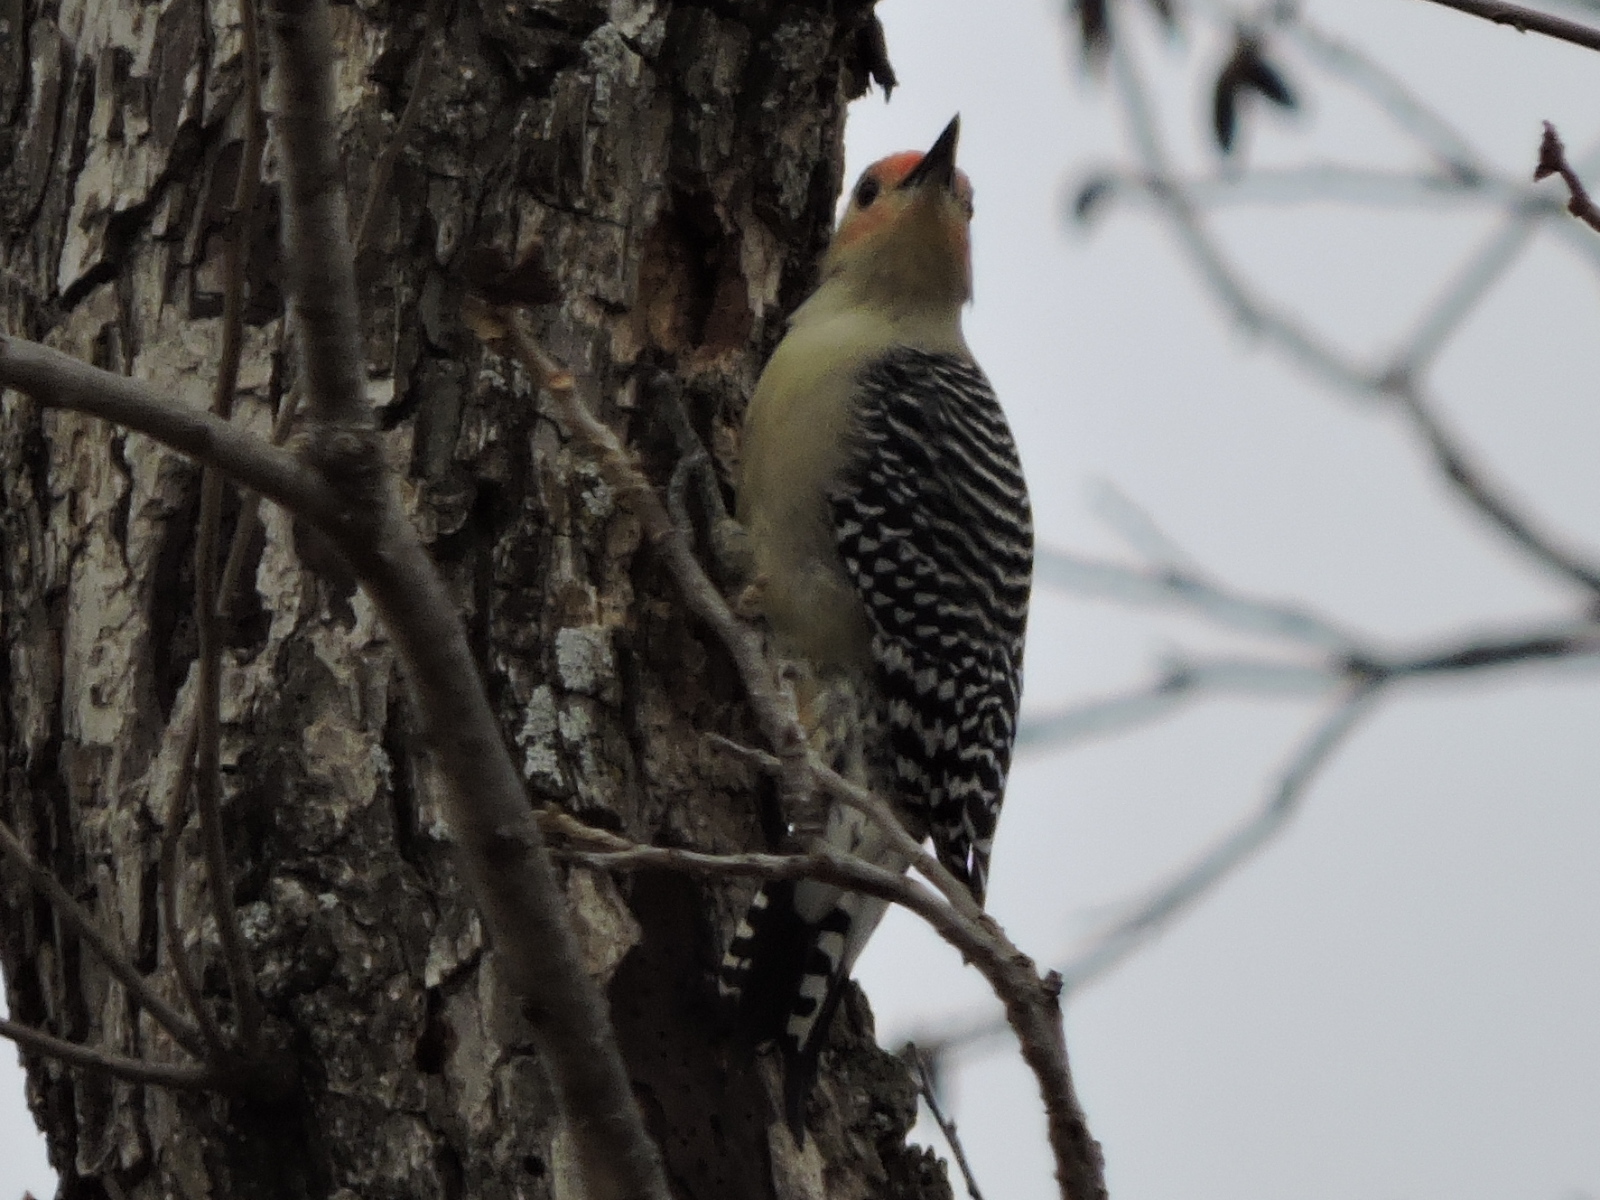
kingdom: Animalia
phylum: Chordata
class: Aves
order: Piciformes
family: Picidae
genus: Melanerpes
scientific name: Melanerpes carolinus
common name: Red-bellied woodpecker
